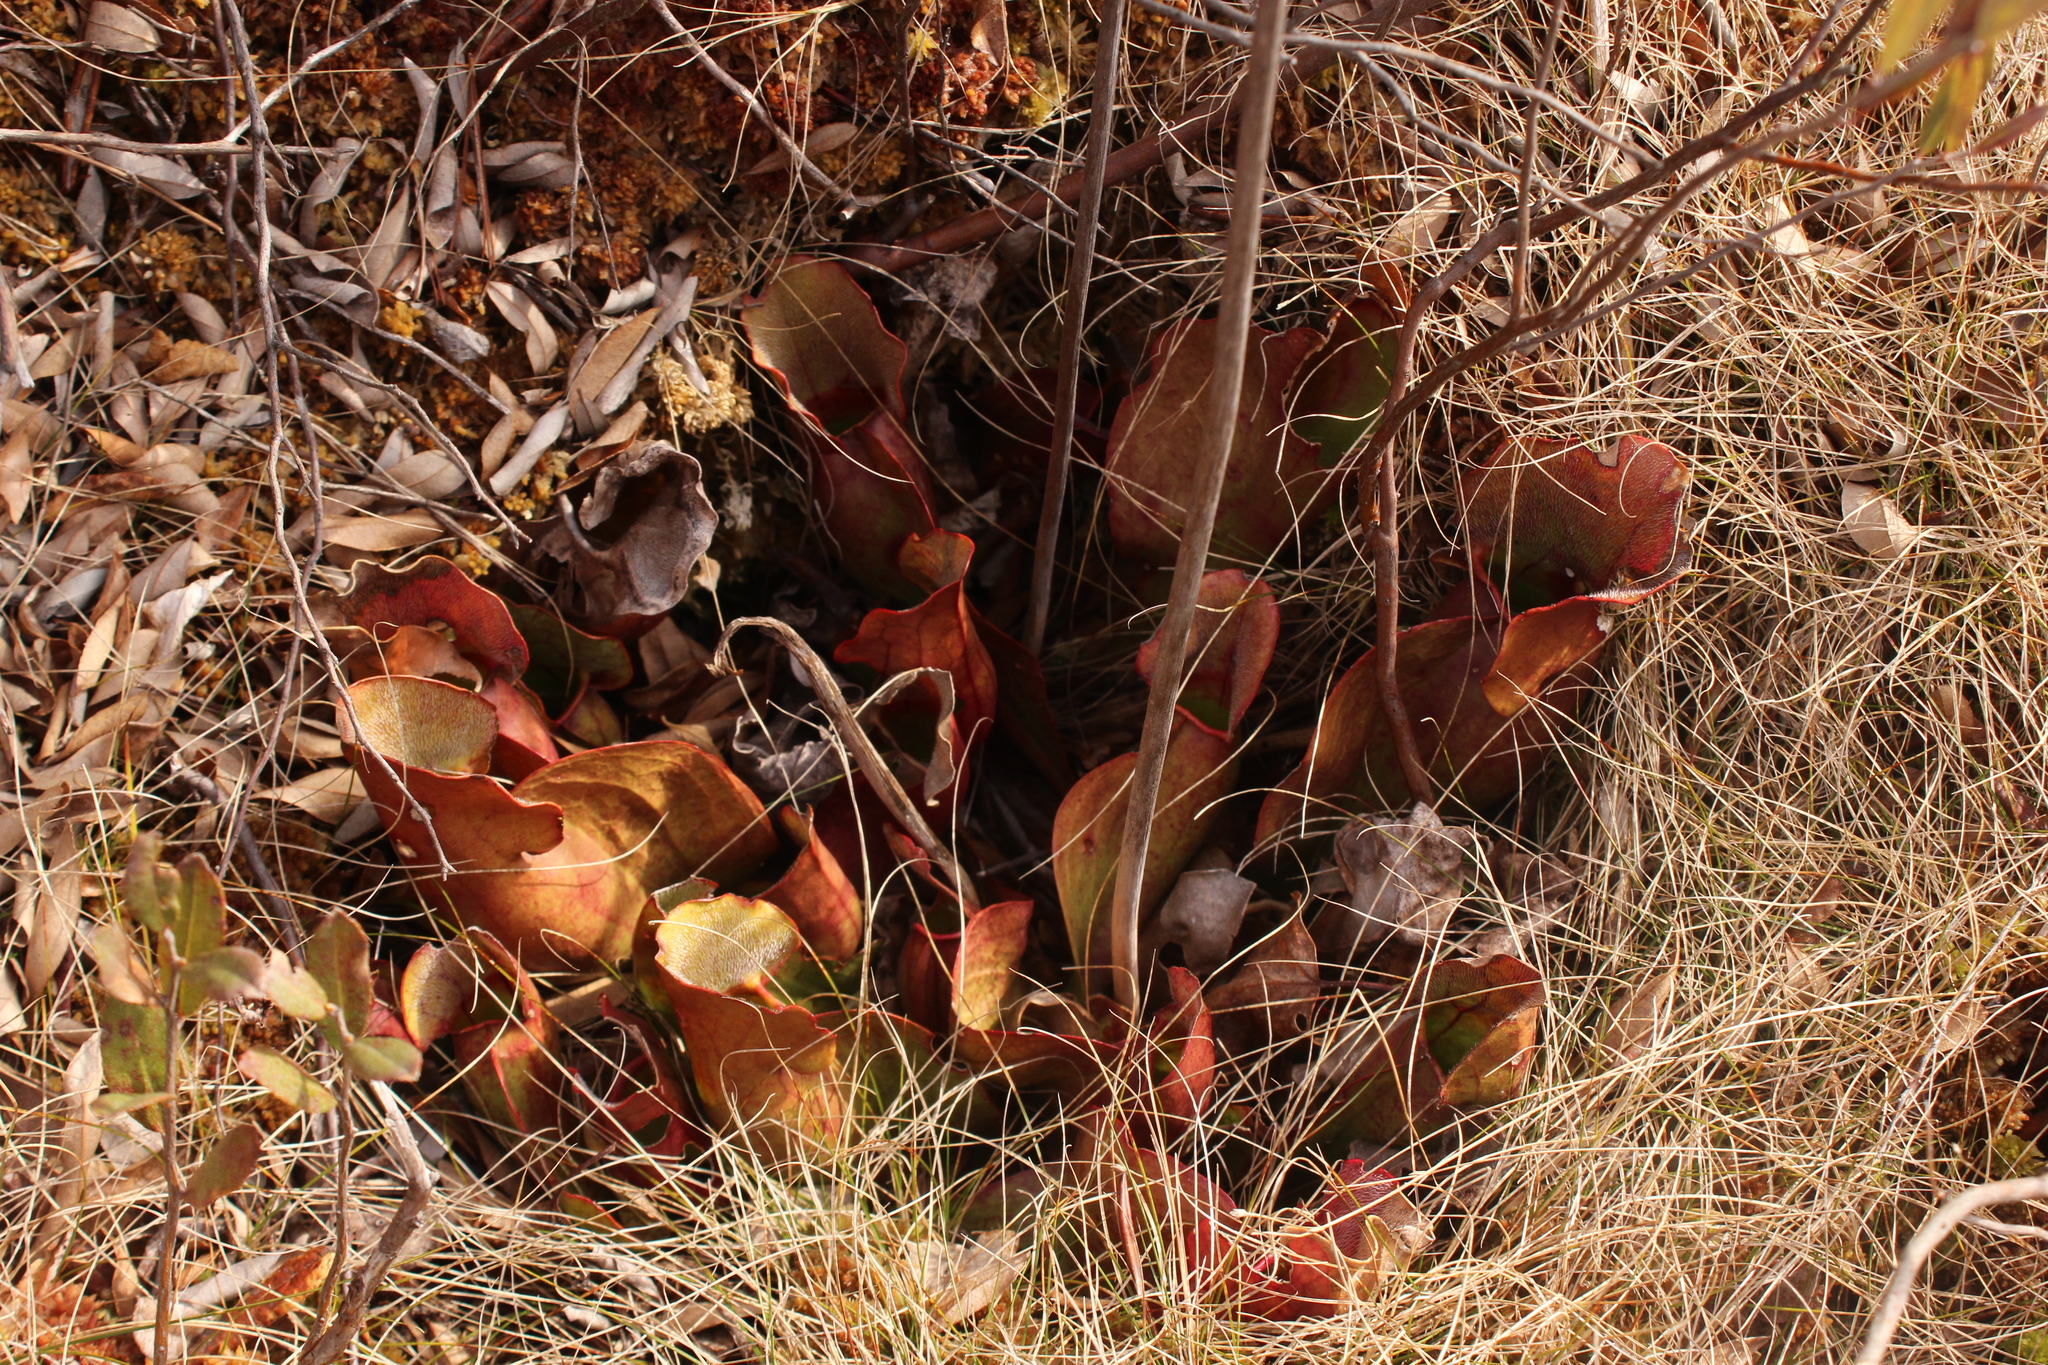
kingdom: Plantae
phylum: Tracheophyta
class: Magnoliopsida
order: Ericales
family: Sarraceniaceae
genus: Sarracenia
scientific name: Sarracenia purpurea
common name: Pitcherplant
